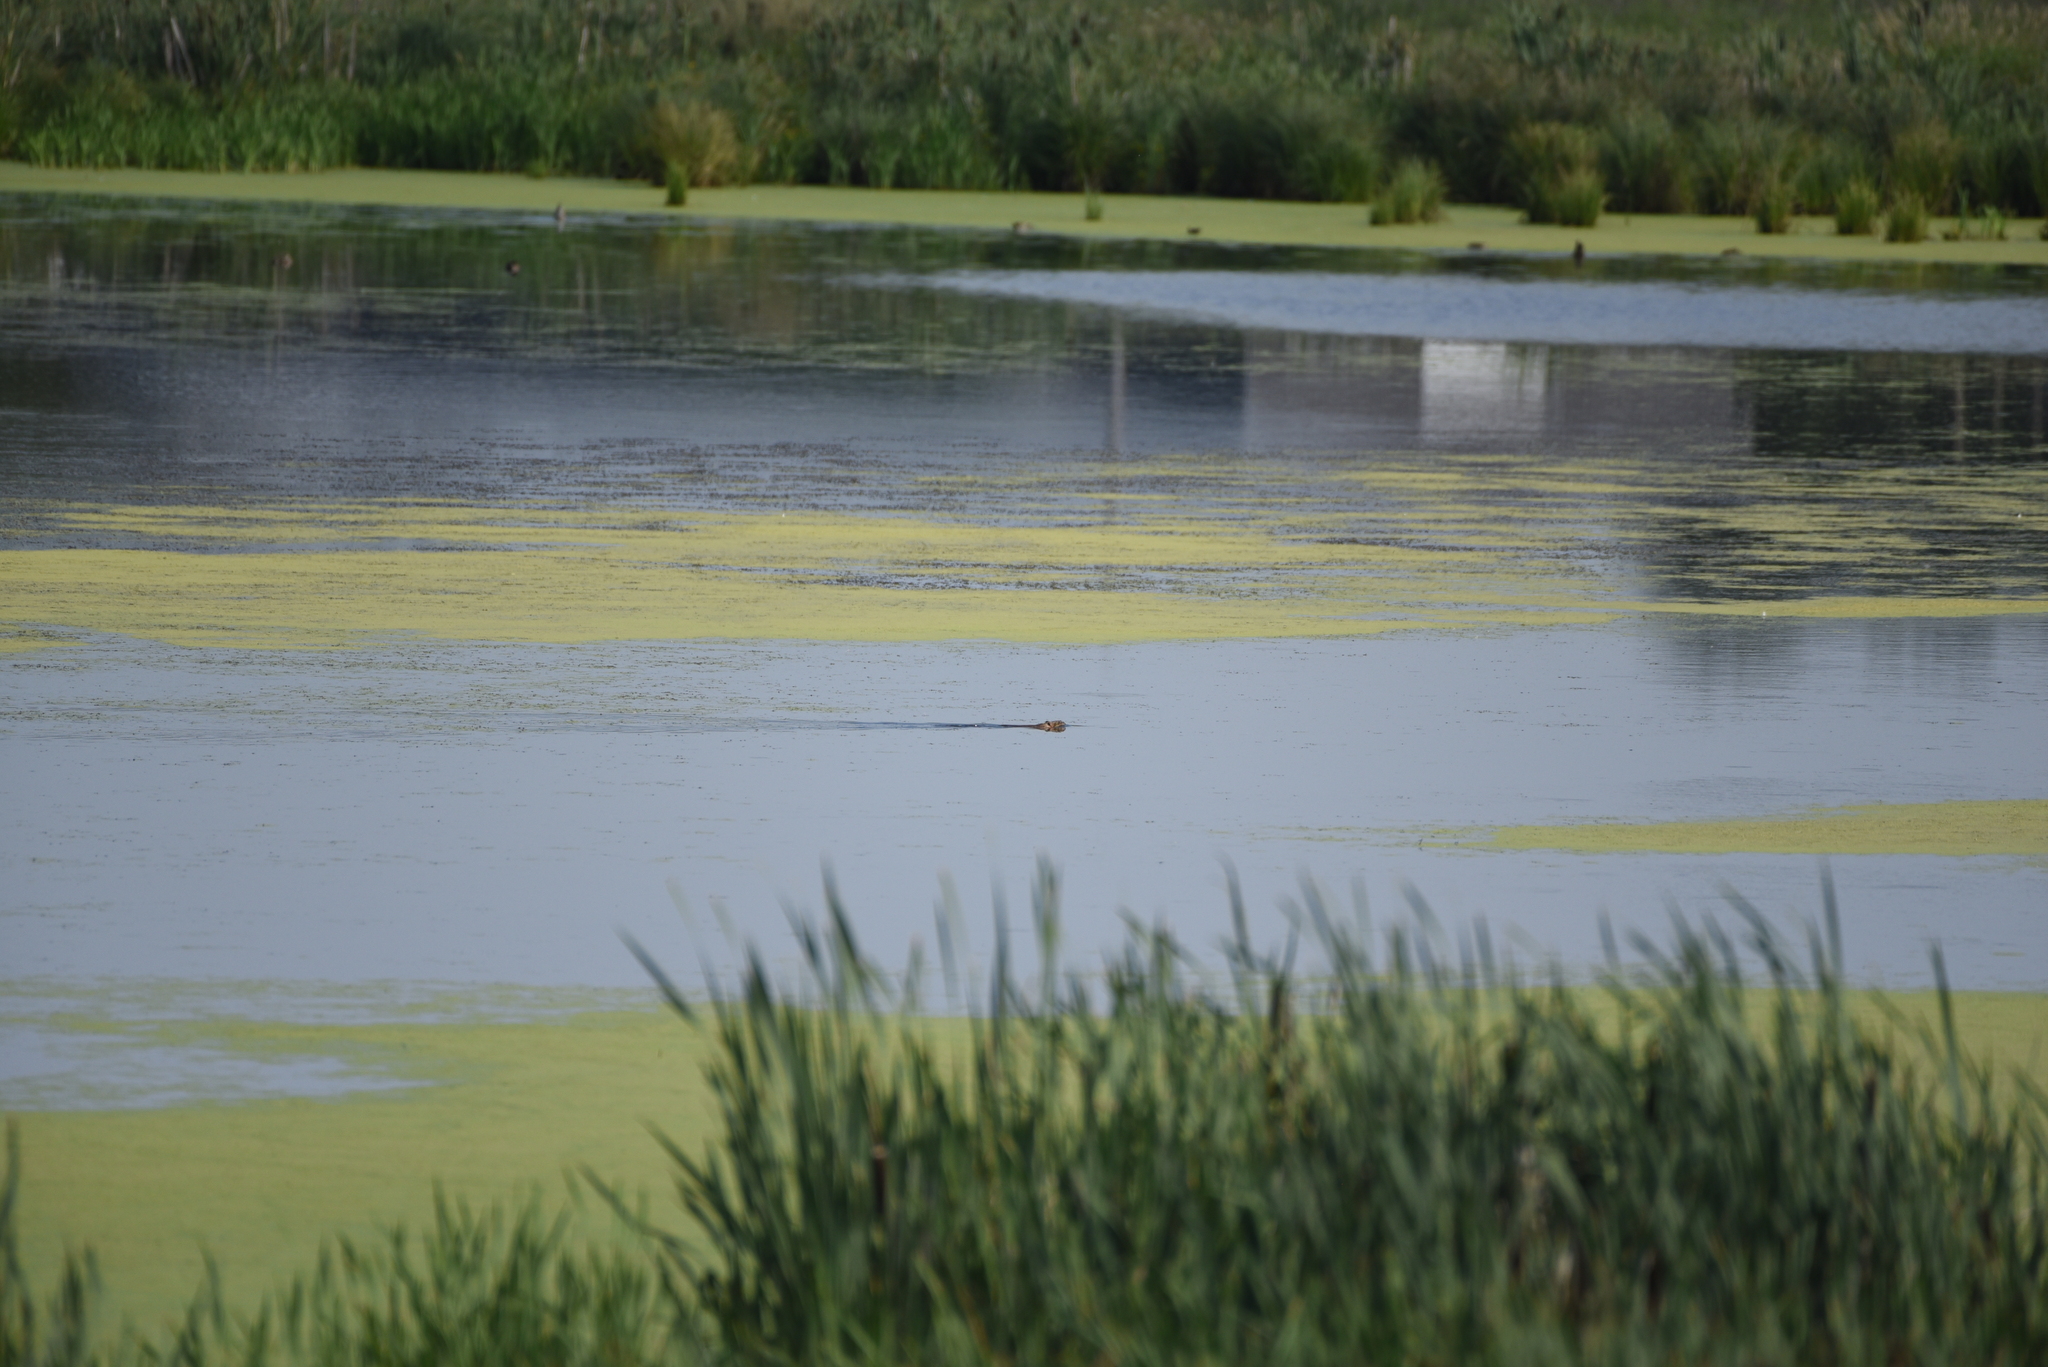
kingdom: Animalia
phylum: Chordata
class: Mammalia
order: Rodentia
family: Cricetidae
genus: Ondatra
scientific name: Ondatra zibethicus
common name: Muskrat
